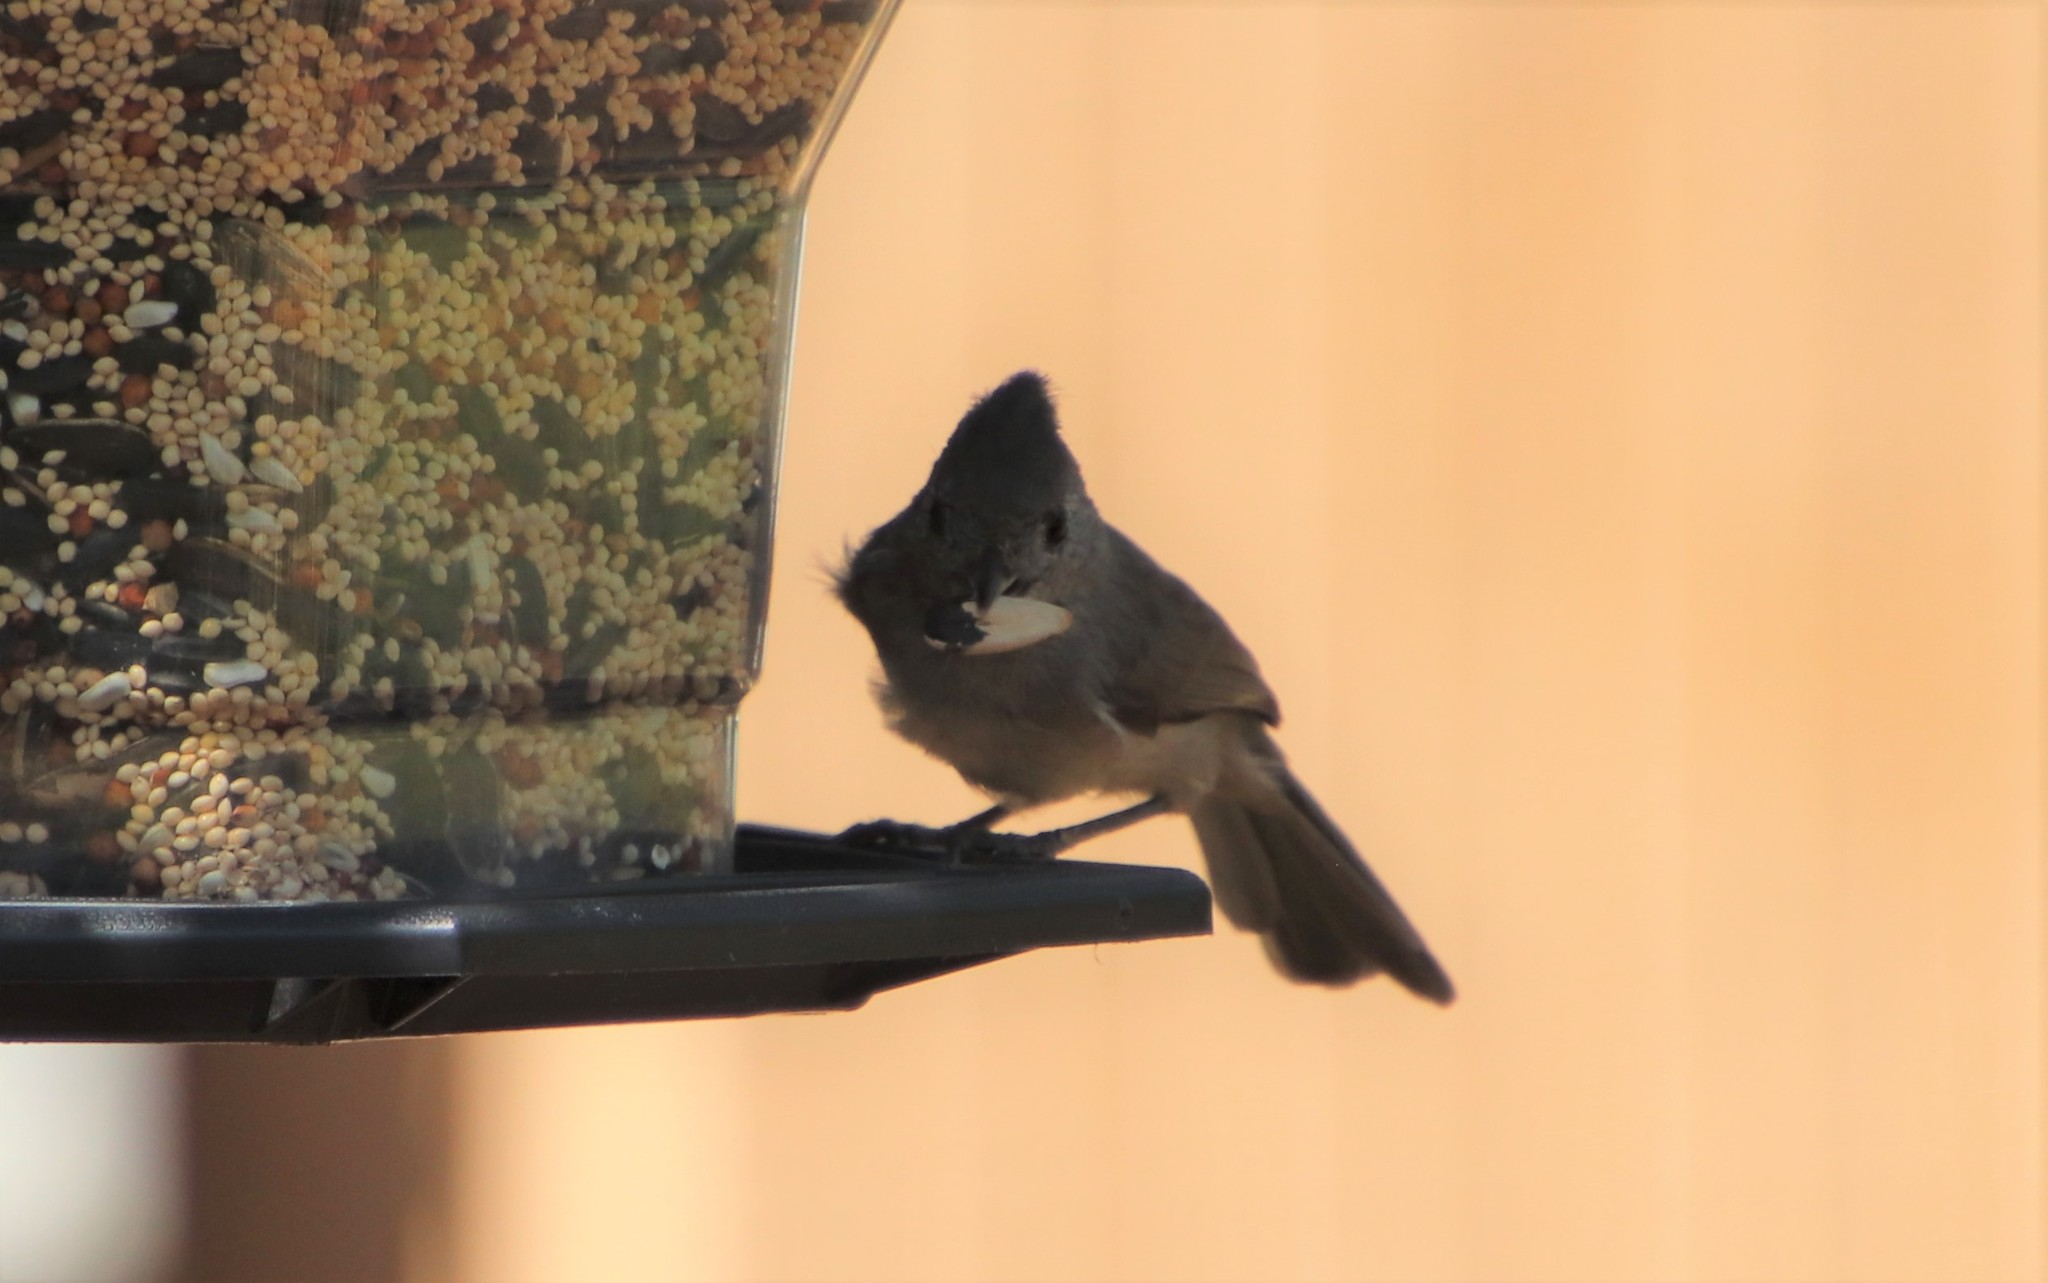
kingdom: Animalia
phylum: Chordata
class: Aves
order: Passeriformes
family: Paridae
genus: Baeolophus
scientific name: Baeolophus inornatus
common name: Oak titmouse
